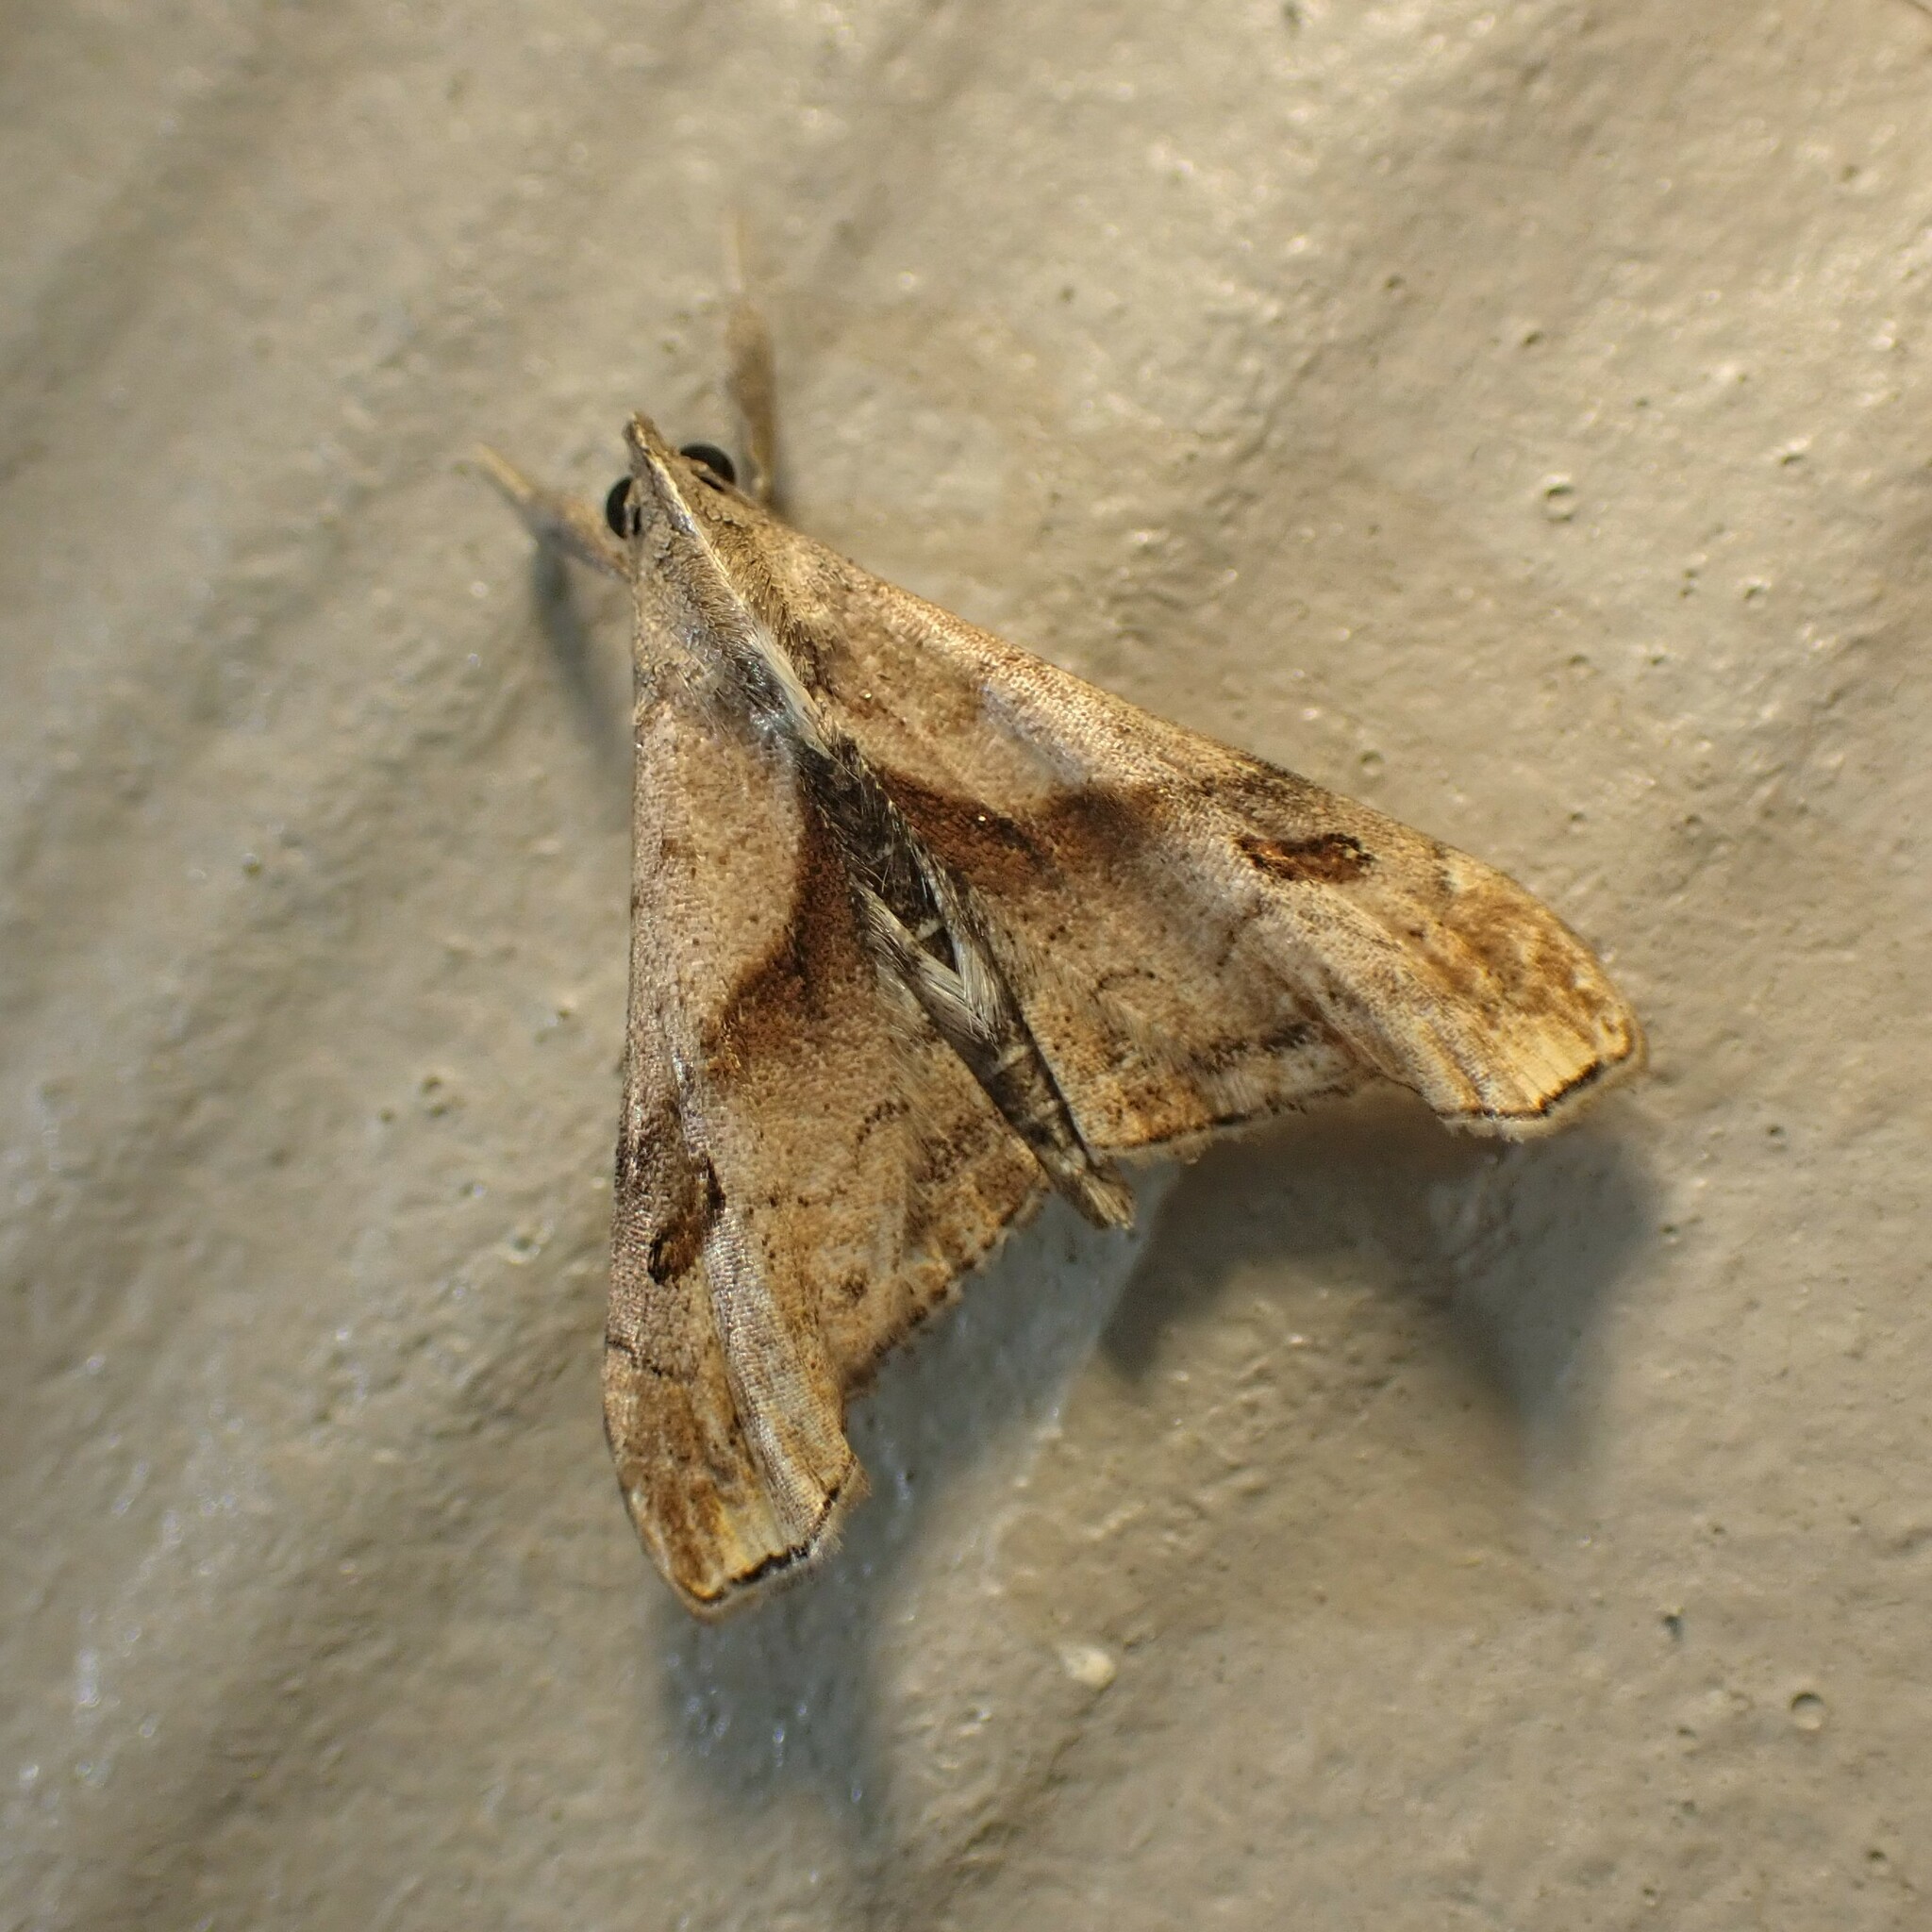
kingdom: Animalia
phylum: Arthropoda
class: Insecta
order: Lepidoptera
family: Erebidae
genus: Palthis
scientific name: Palthis angulalis
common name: Dark-spotted palthis moth
